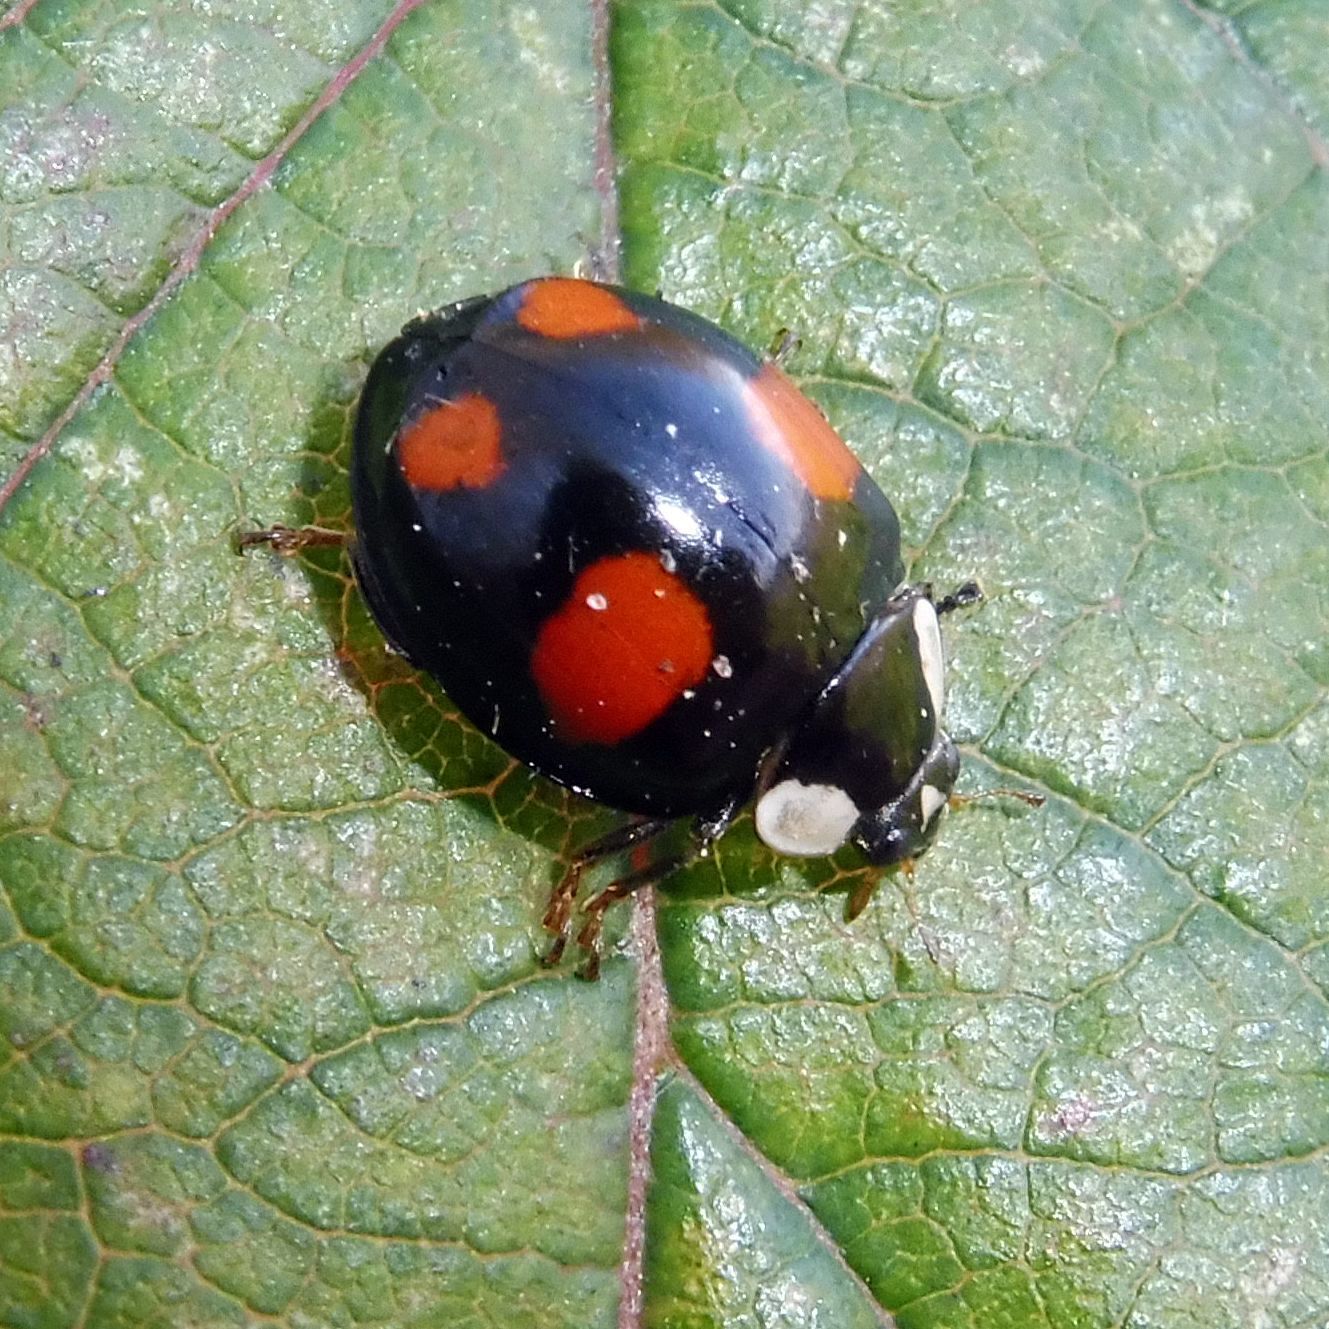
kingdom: Animalia
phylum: Arthropoda
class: Insecta
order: Coleoptera
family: Coccinellidae
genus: Harmonia
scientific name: Harmonia axyridis
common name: Harlequin ladybird
